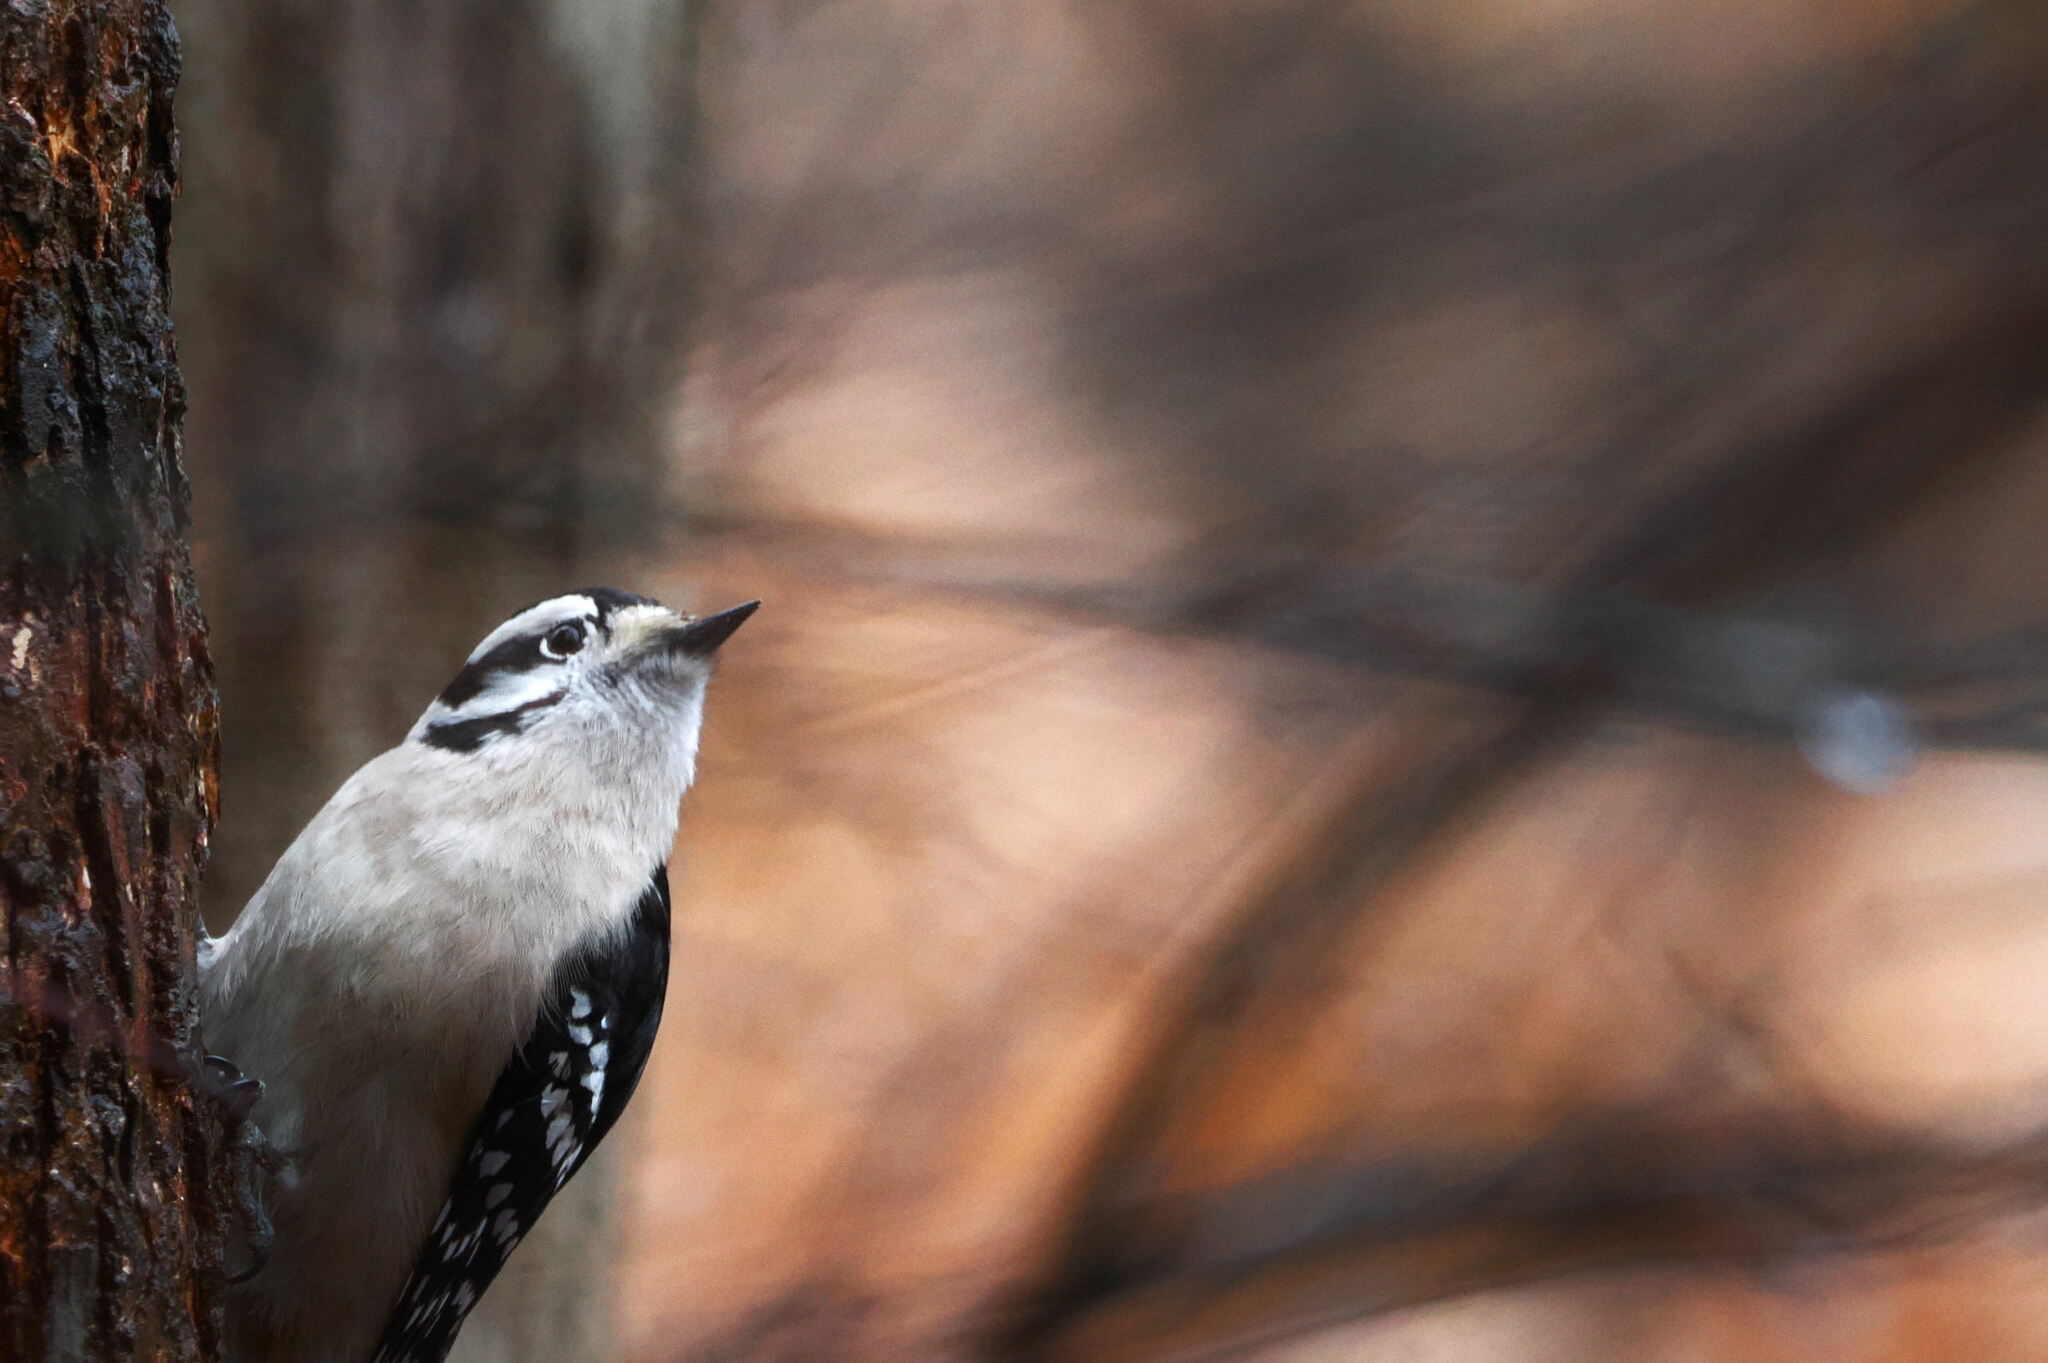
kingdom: Animalia
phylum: Chordata
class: Aves
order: Piciformes
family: Picidae
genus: Dryobates
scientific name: Dryobates pubescens
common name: Downy woodpecker
